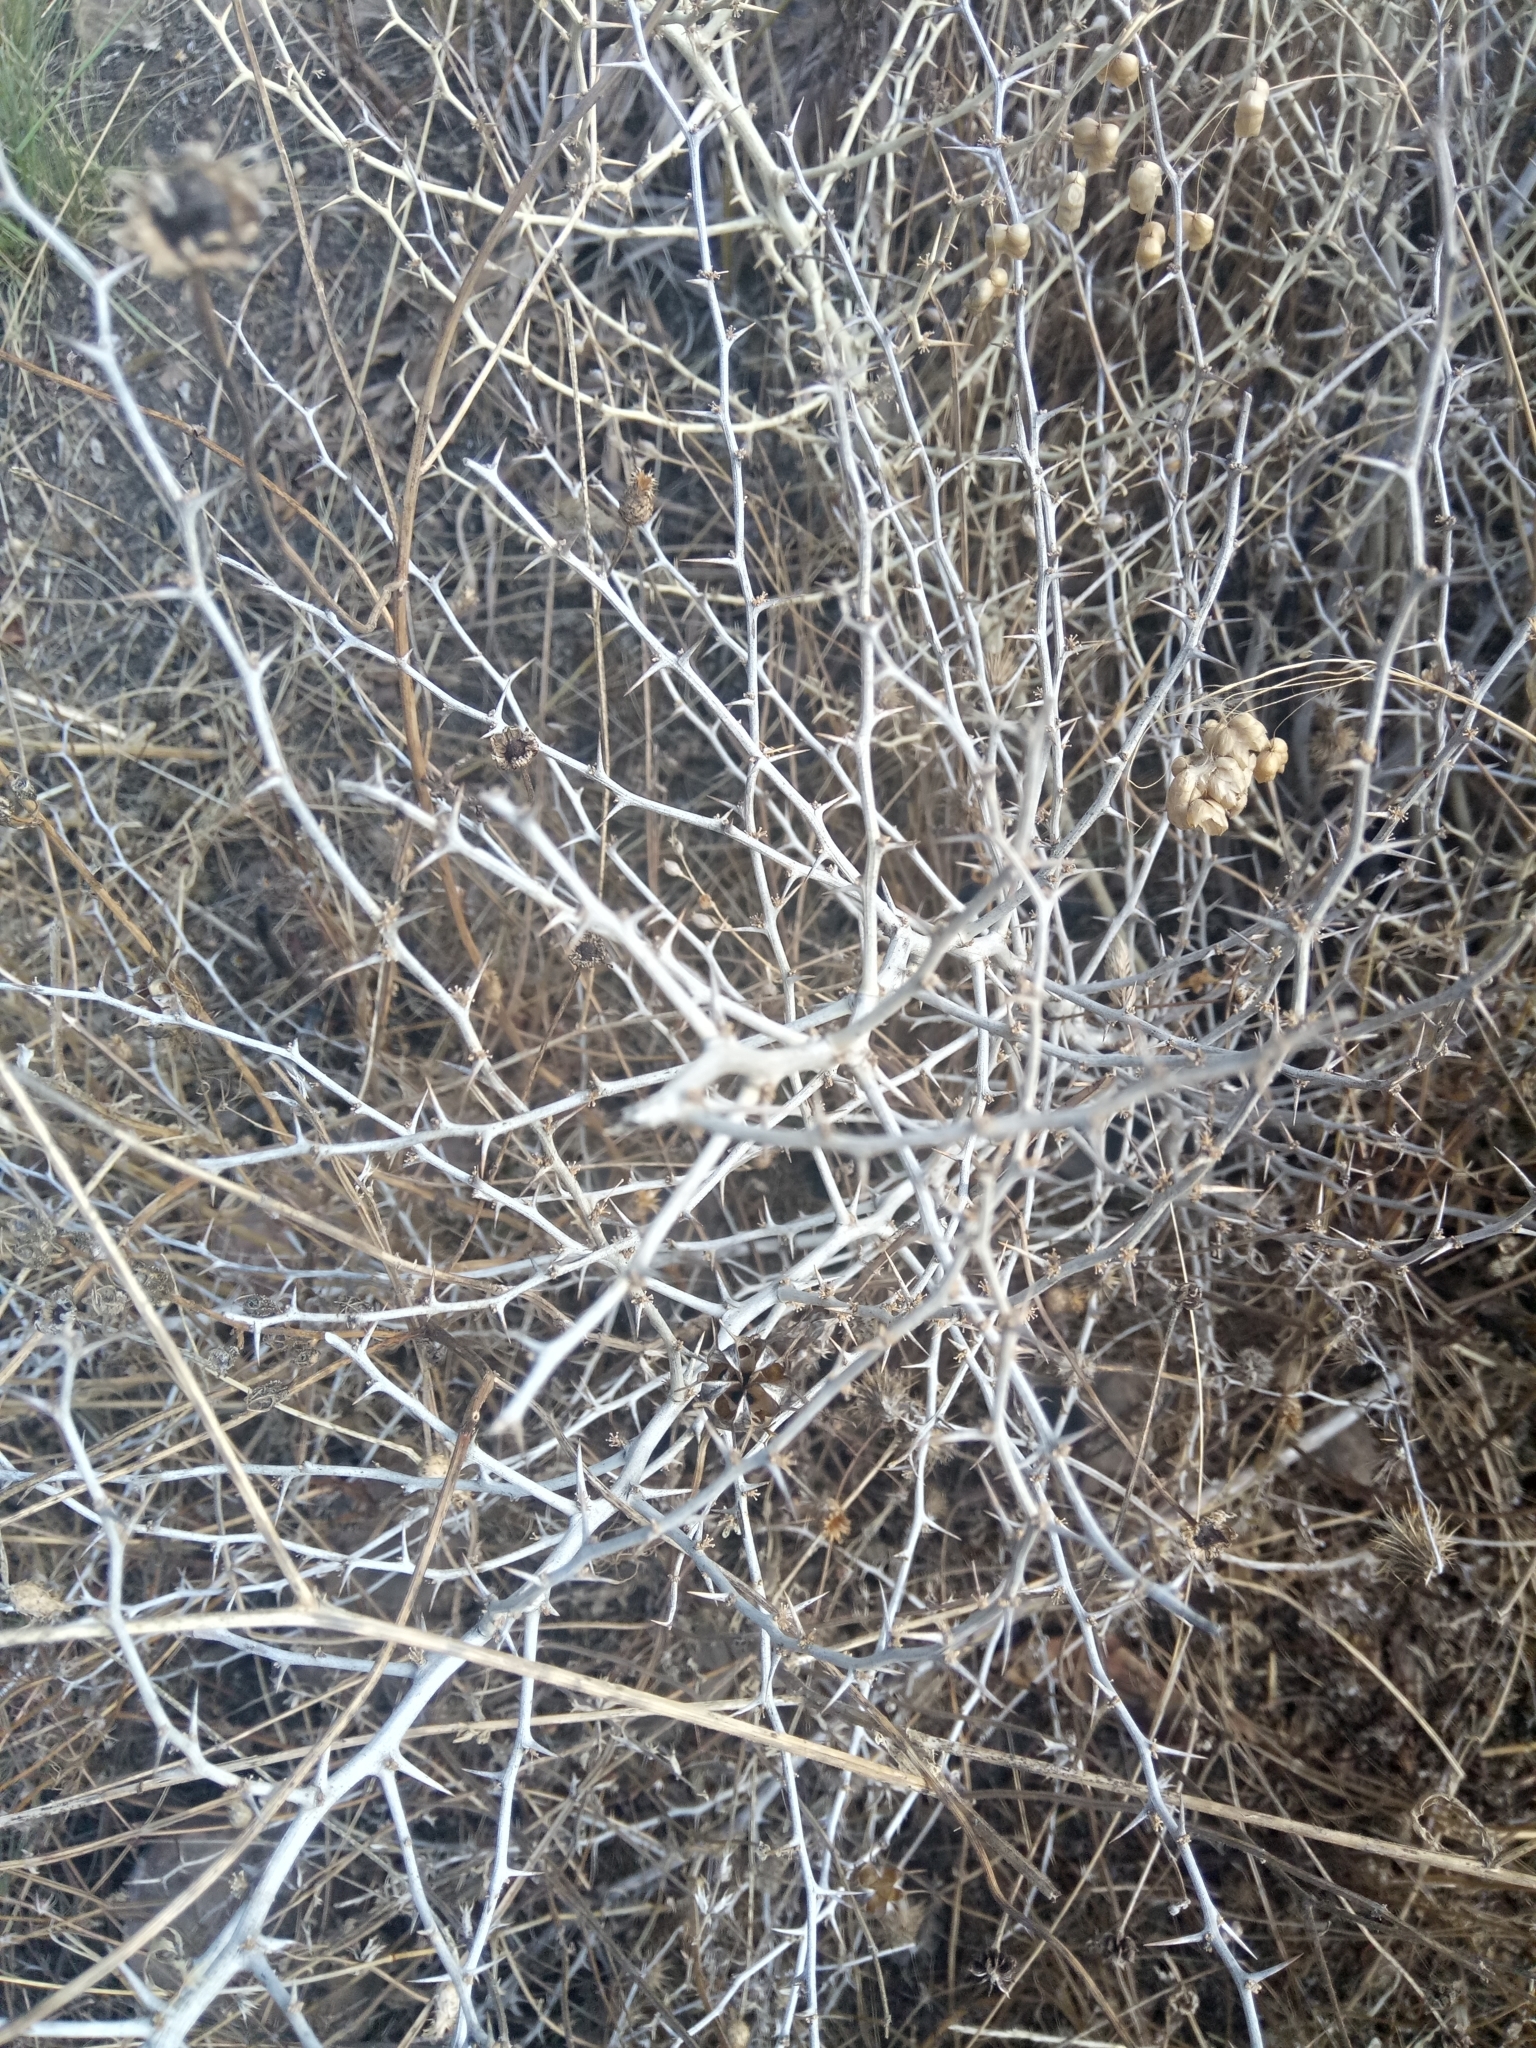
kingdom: Plantae
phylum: Tracheophyta
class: Liliopsida
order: Asparagales
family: Asparagaceae
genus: Asparagus
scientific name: Asparagus albus
